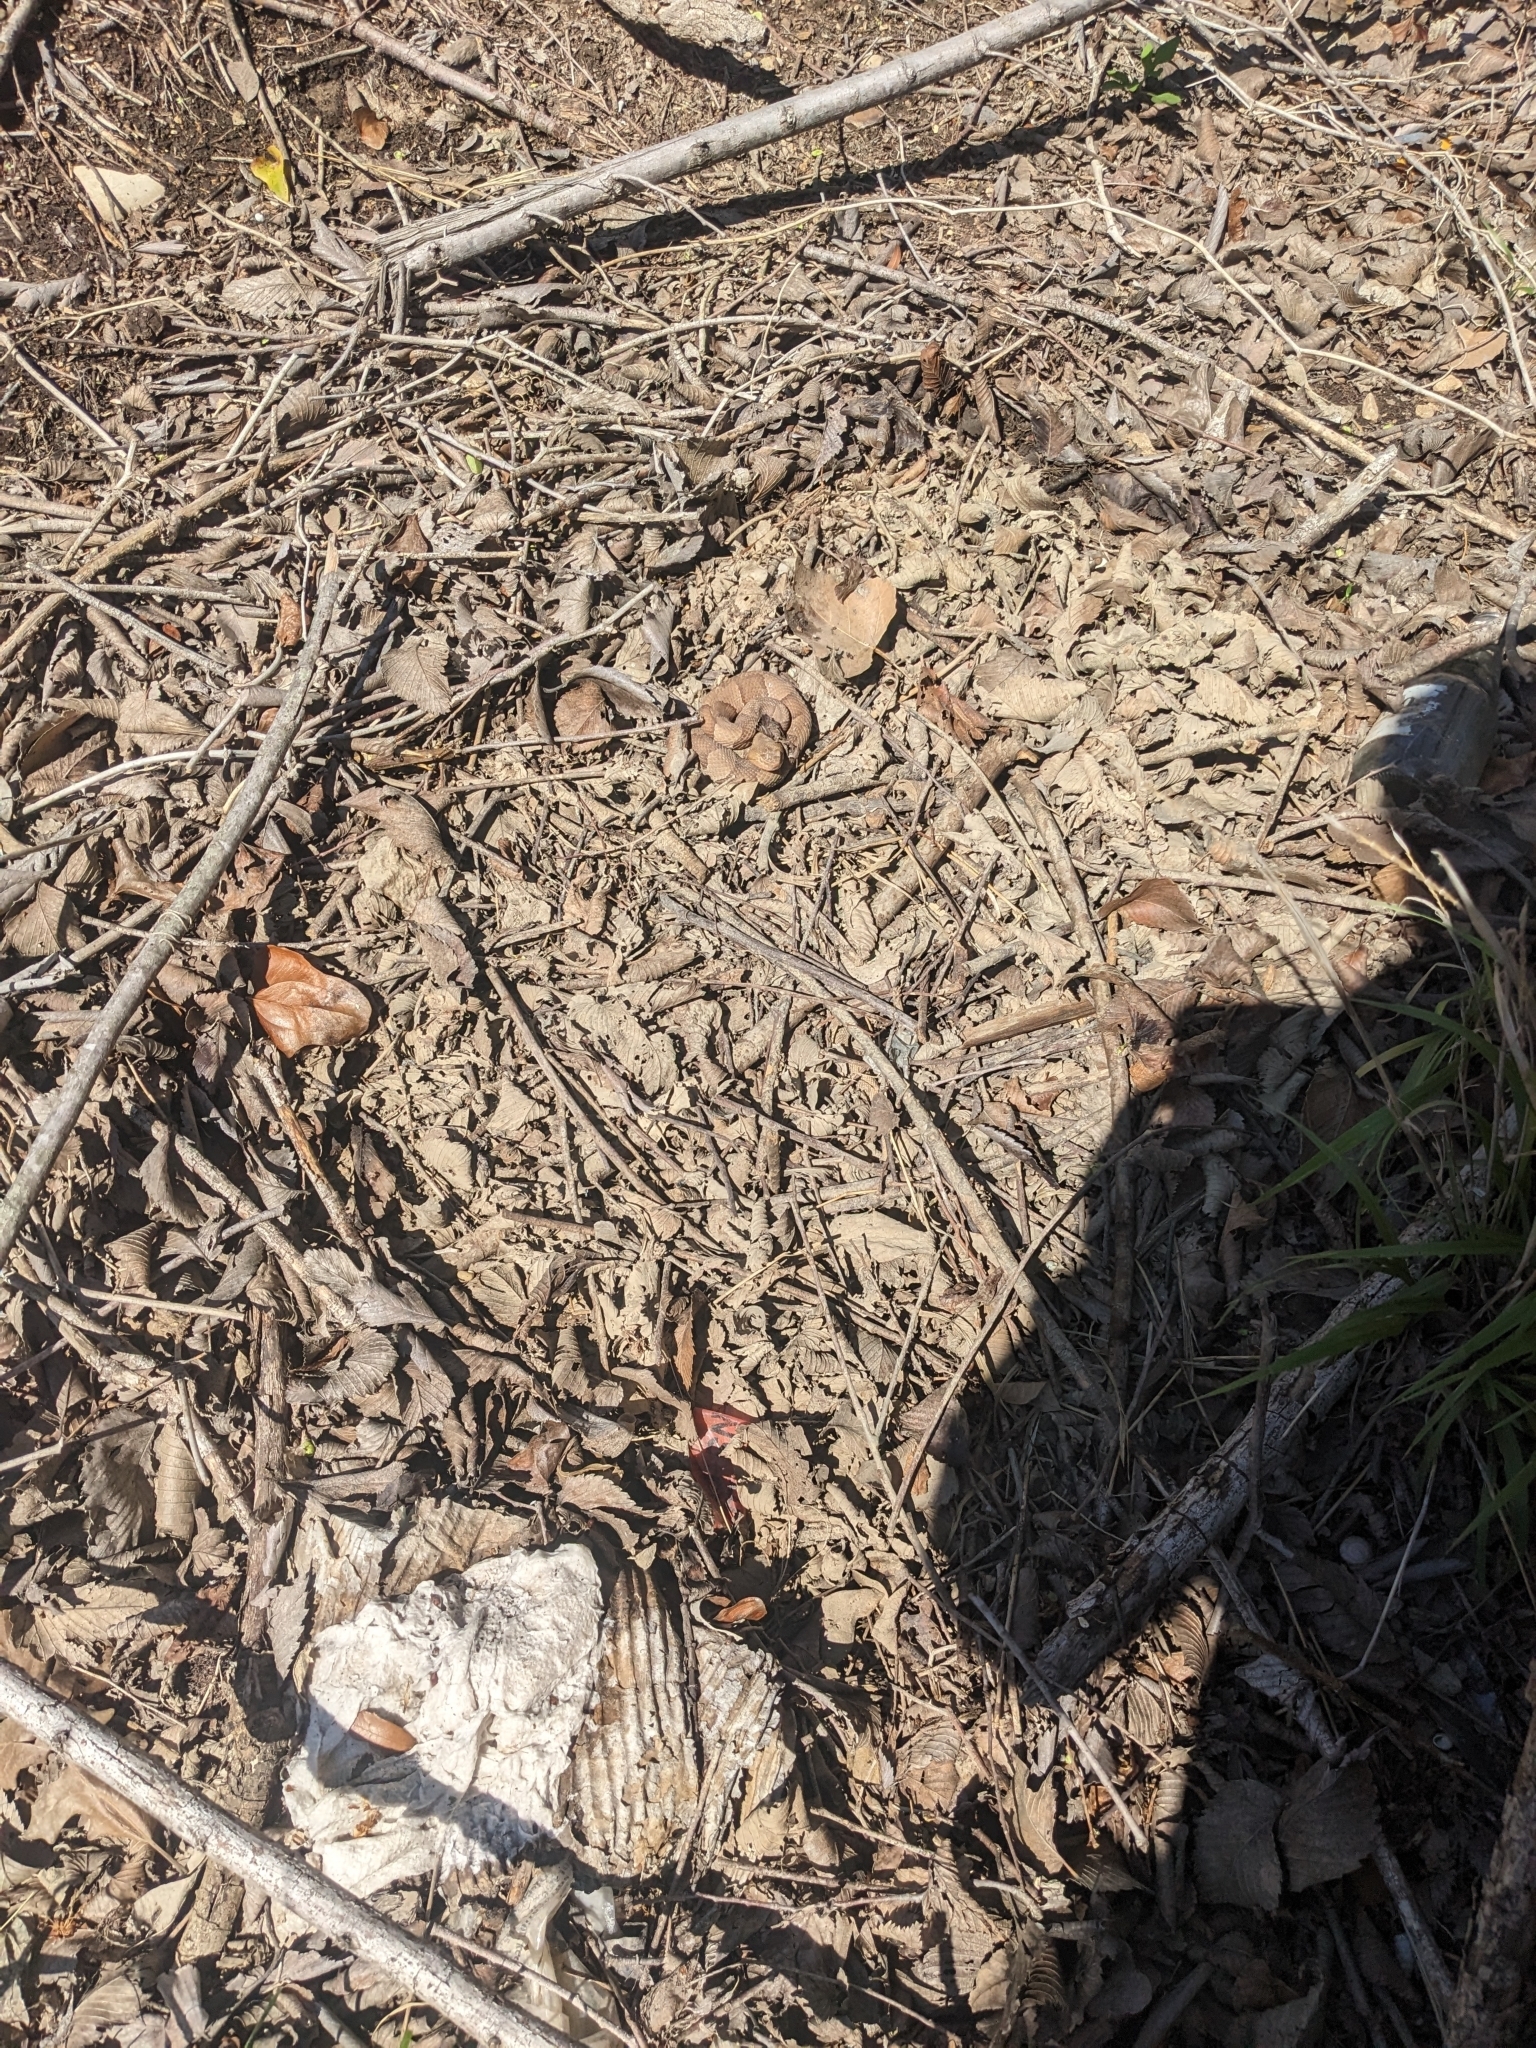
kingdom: Animalia
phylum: Chordata
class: Squamata
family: Viperidae
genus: Agkistrodon
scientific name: Agkistrodon laticinctus
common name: Broad-banded copperhead
